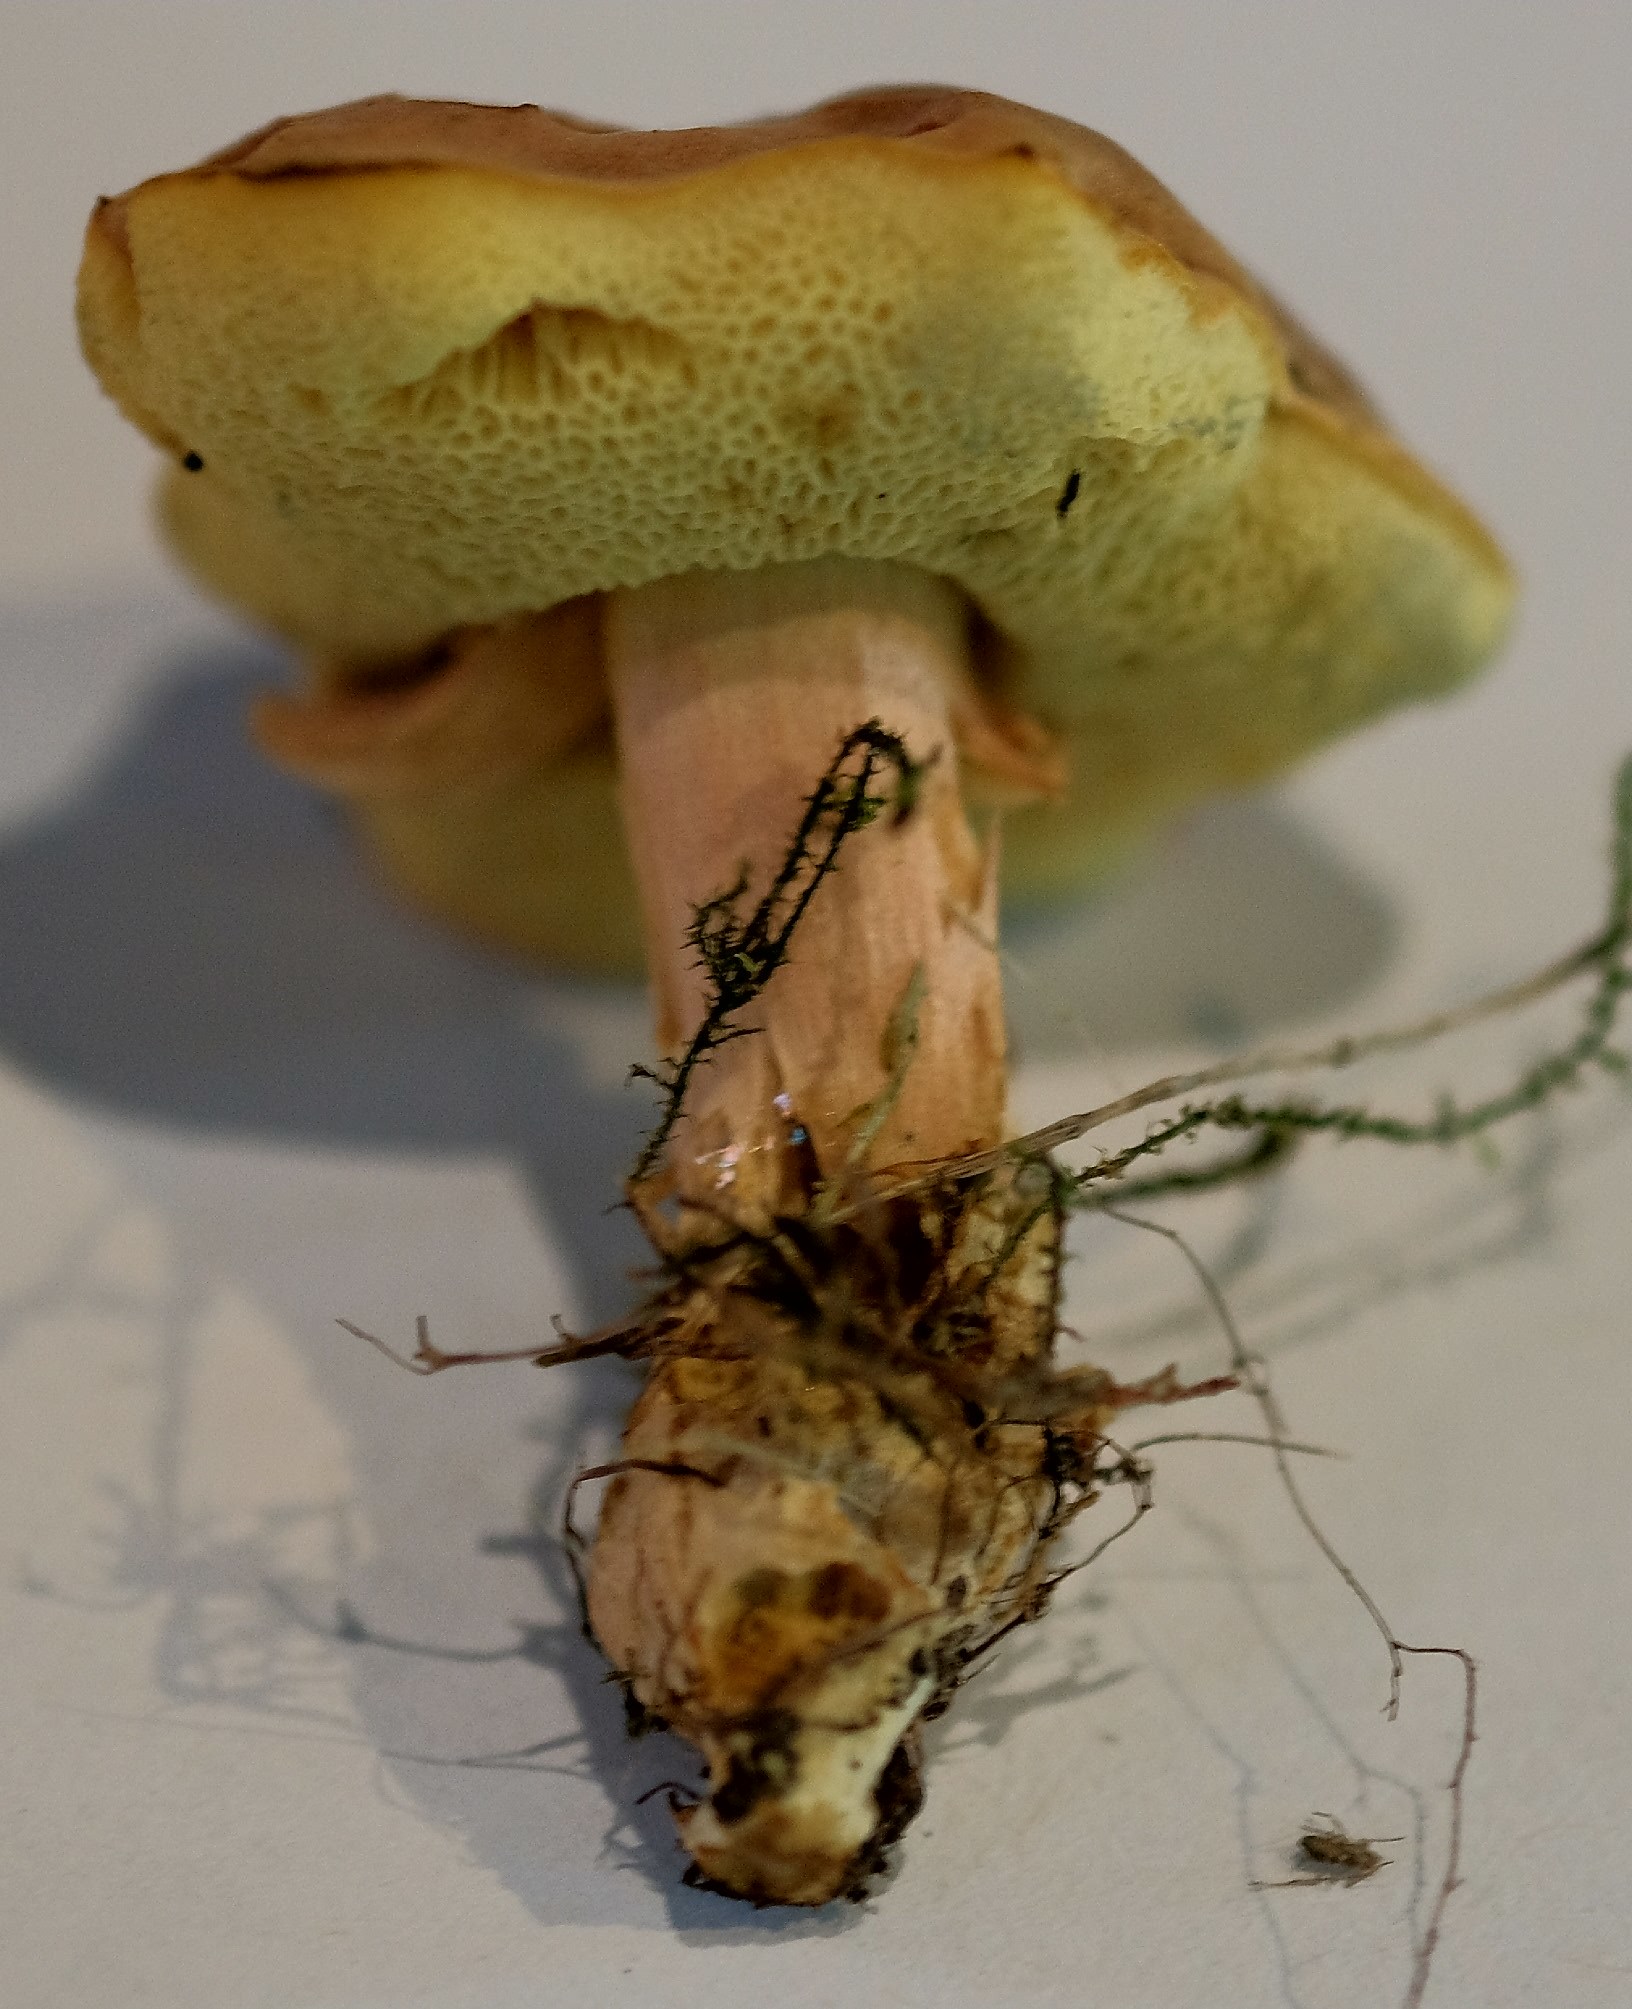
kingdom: Fungi
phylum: Basidiomycota
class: Agaricomycetes
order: Boletales
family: Boletaceae
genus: Hortiboletus
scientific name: Hortiboletus bubalinus
